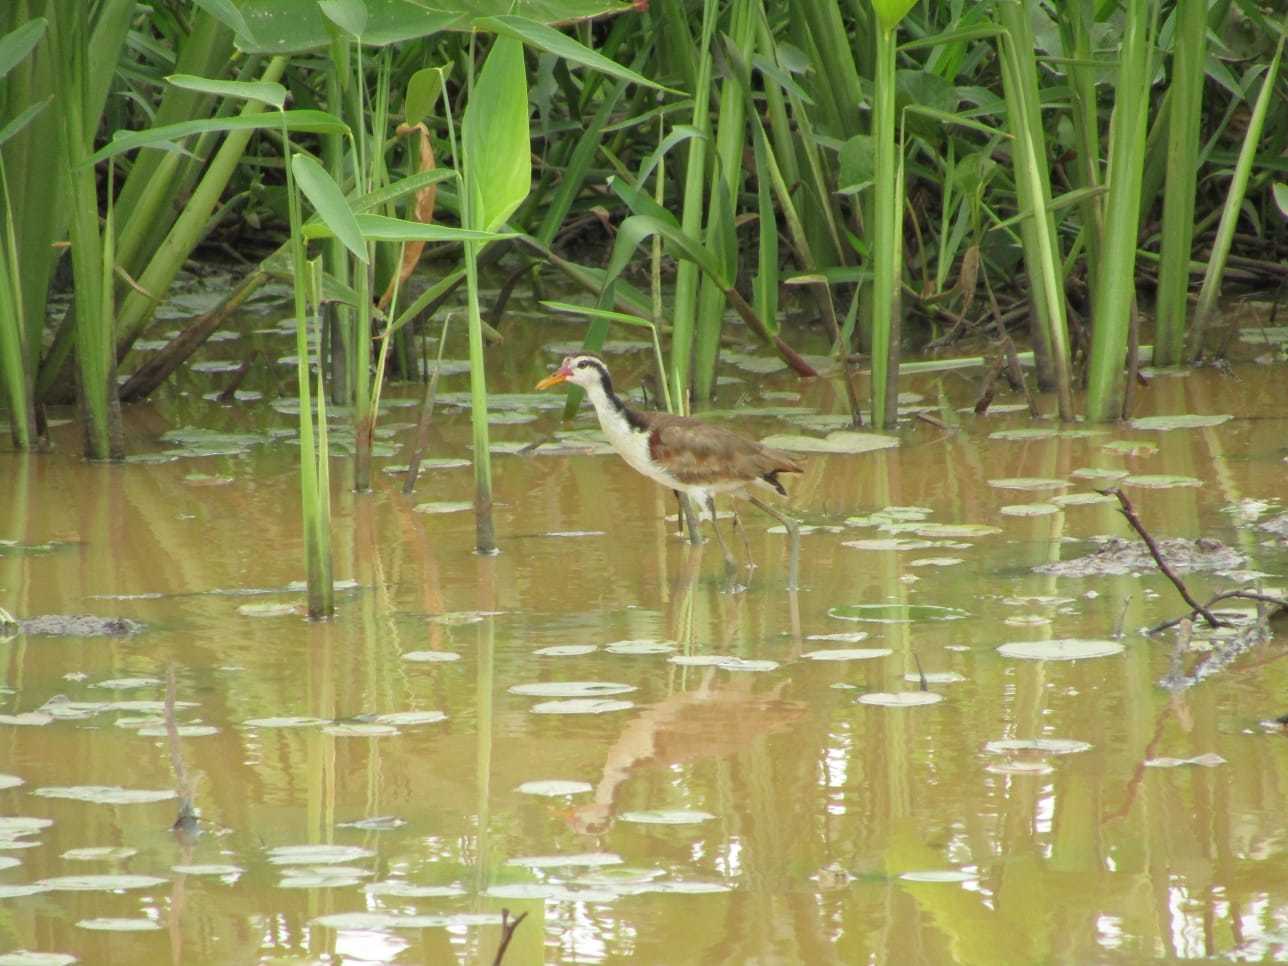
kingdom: Animalia
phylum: Chordata
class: Aves
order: Charadriiformes
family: Jacanidae
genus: Jacana
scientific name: Jacana jacana
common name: Wattled jacana
